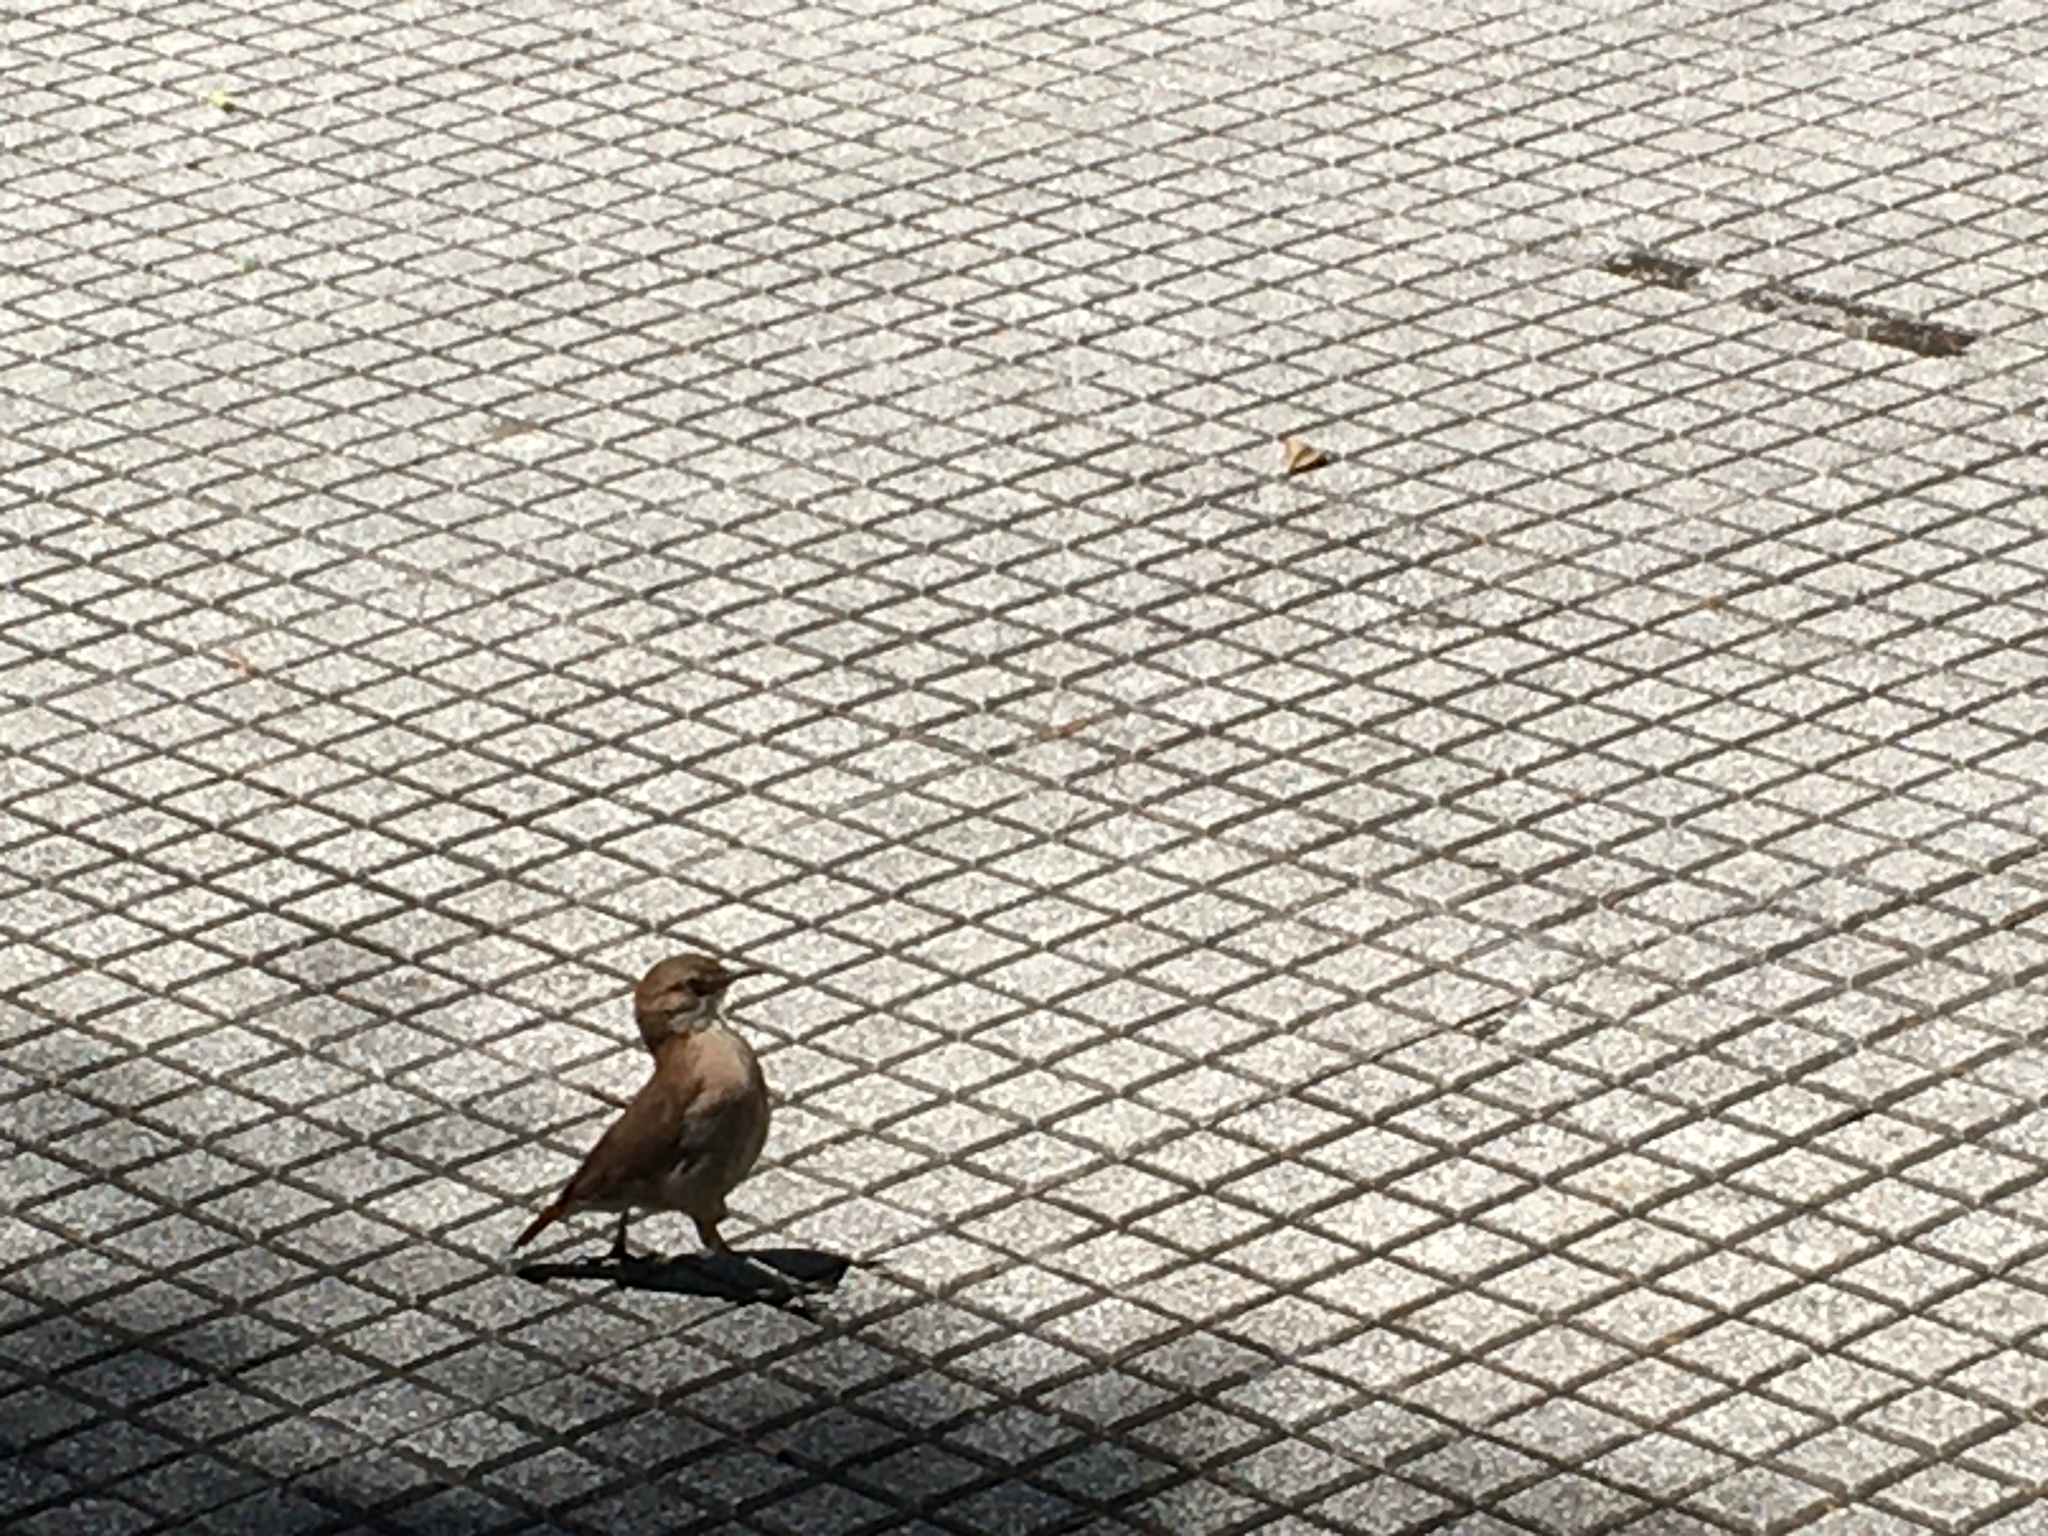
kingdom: Animalia
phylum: Chordata
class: Aves
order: Passeriformes
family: Furnariidae
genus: Furnarius
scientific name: Furnarius rufus
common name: Rufous hornero
